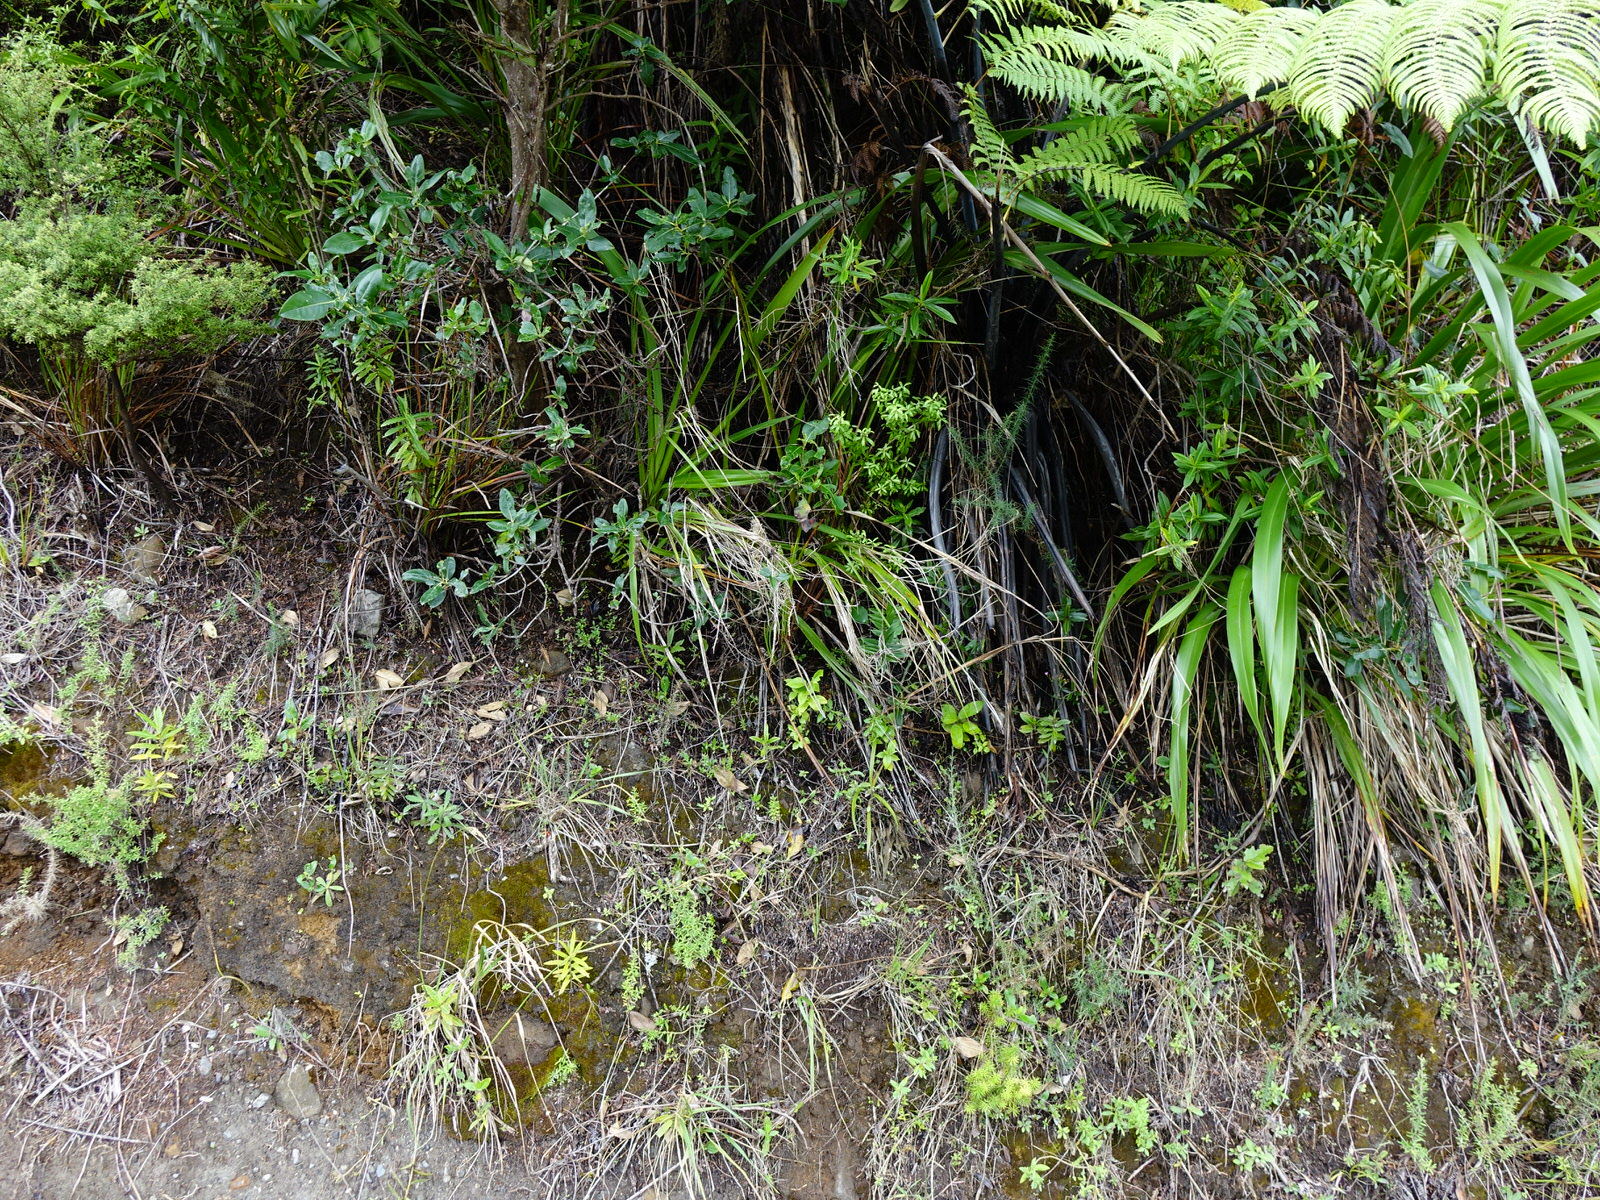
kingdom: Plantae
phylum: Tracheophyta
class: Magnoliopsida
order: Sapindales
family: Rutaceae
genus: Leionema
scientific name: Leionema nudum
